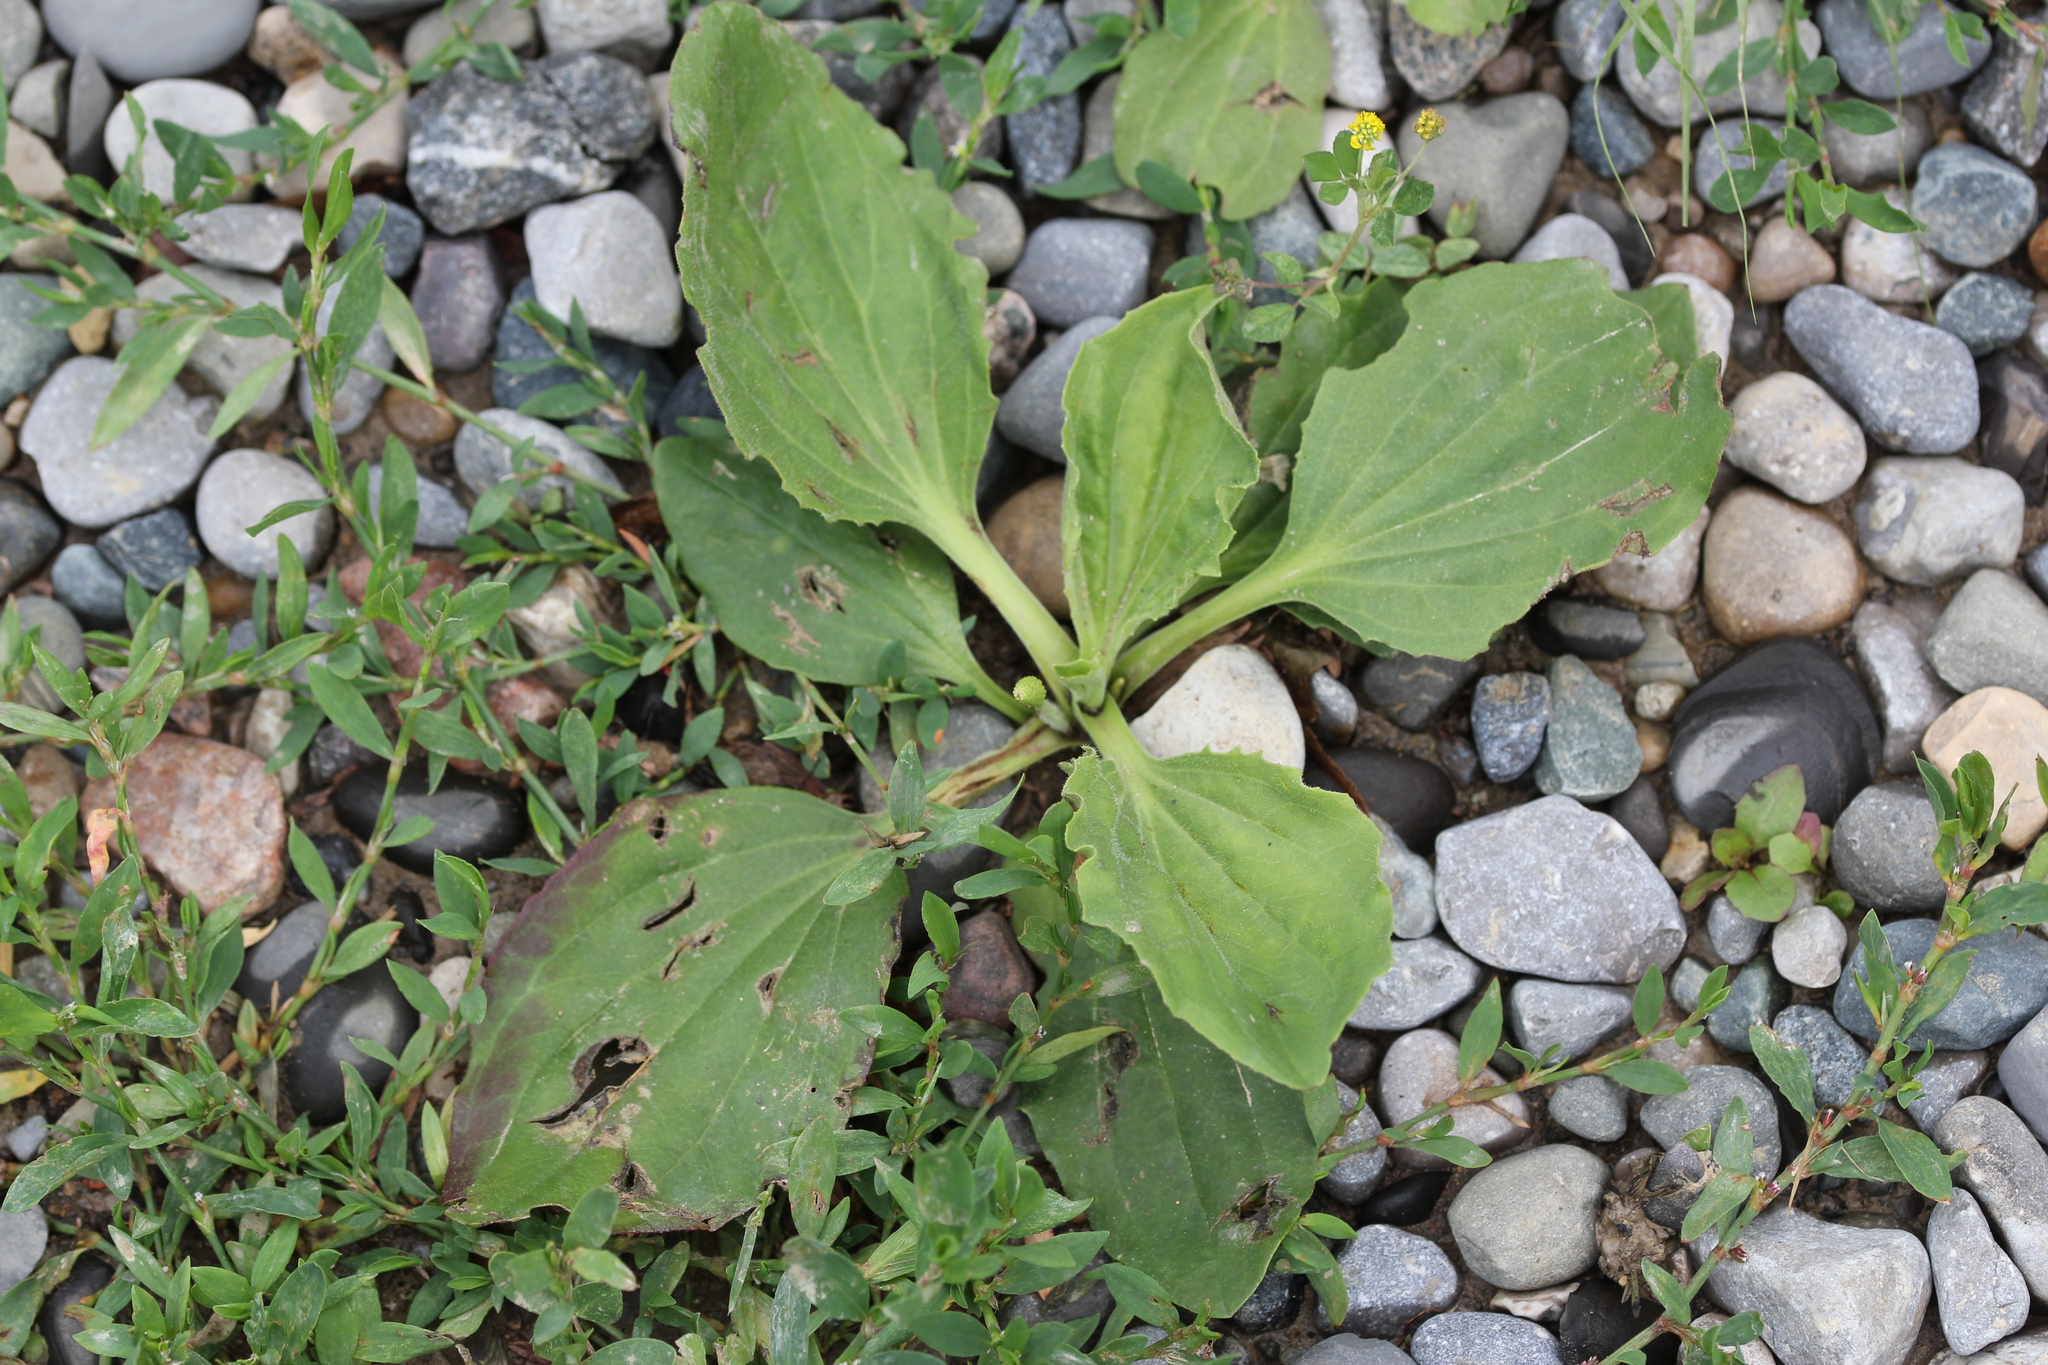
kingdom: Plantae
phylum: Tracheophyta
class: Magnoliopsida
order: Lamiales
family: Plantaginaceae
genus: Plantago
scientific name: Plantago major
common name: Common plantain
